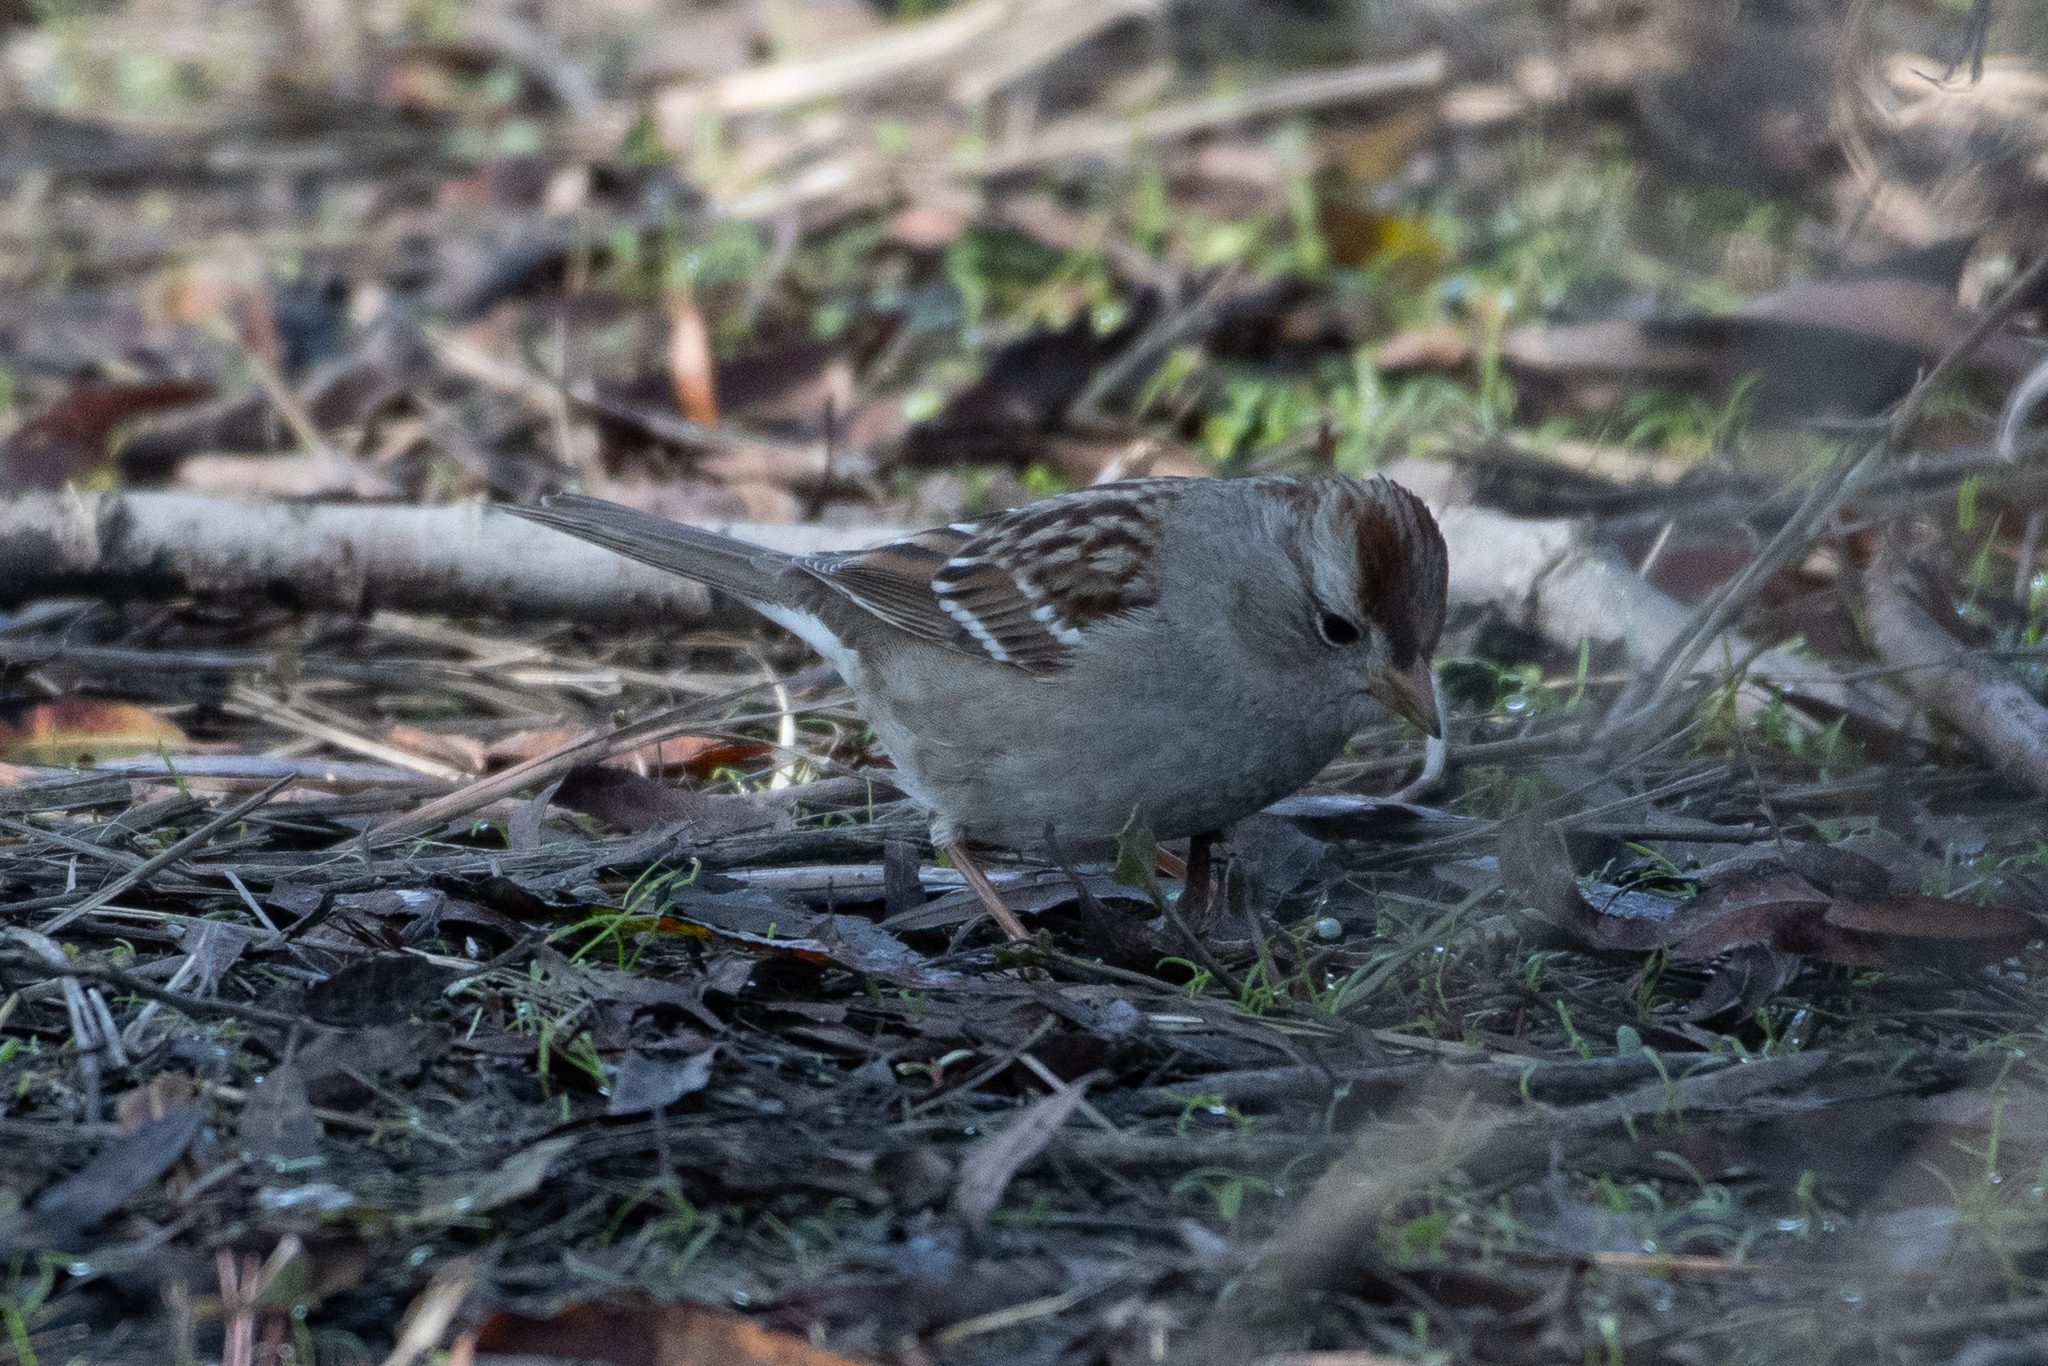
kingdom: Animalia
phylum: Chordata
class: Aves
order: Passeriformes
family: Passerellidae
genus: Zonotrichia
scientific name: Zonotrichia leucophrys
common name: White-crowned sparrow
